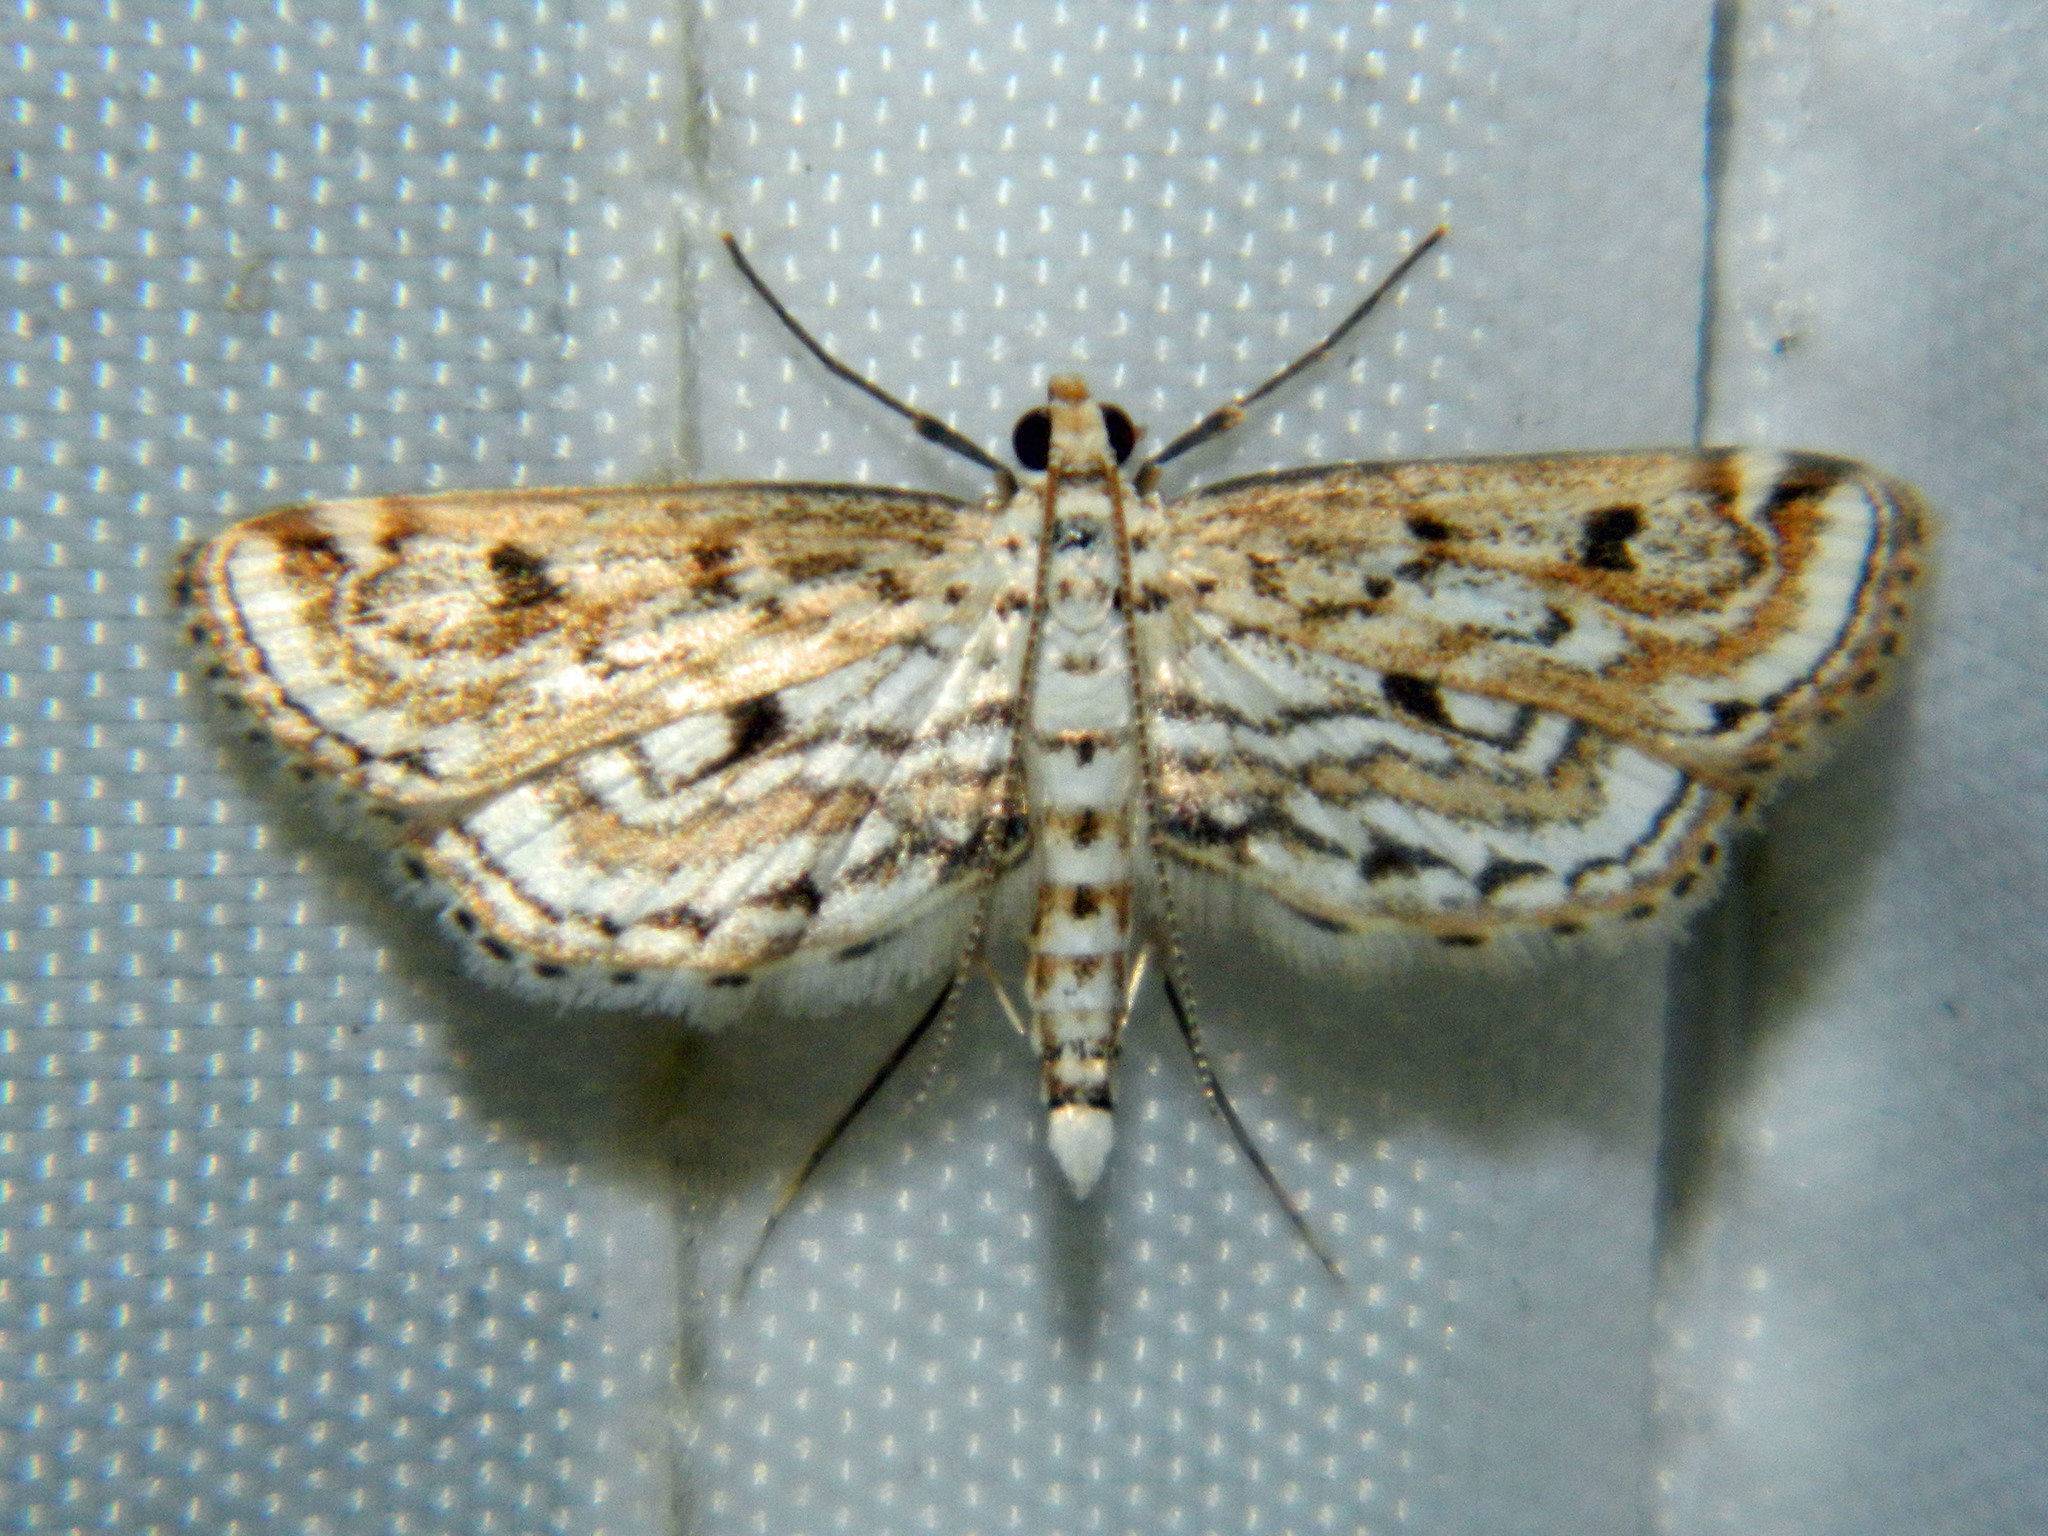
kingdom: Animalia
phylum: Arthropoda
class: Insecta
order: Lepidoptera
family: Crambidae
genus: Parapoynx
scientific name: Parapoynx allionealis
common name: Bladderwort casemaker
